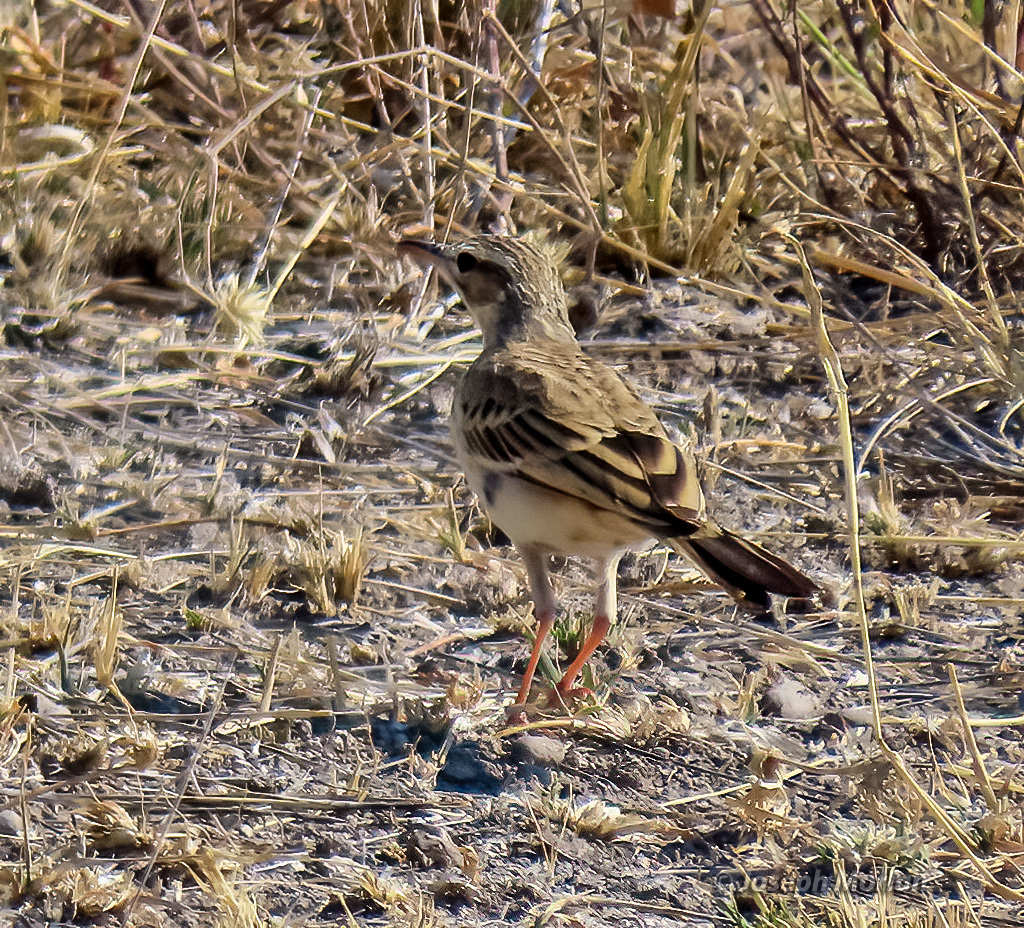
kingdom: Animalia
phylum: Chordata
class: Aves
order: Passeriformes
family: Motacillidae
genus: Anthus
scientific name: Anthus cinnamomeus
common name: African pipit
